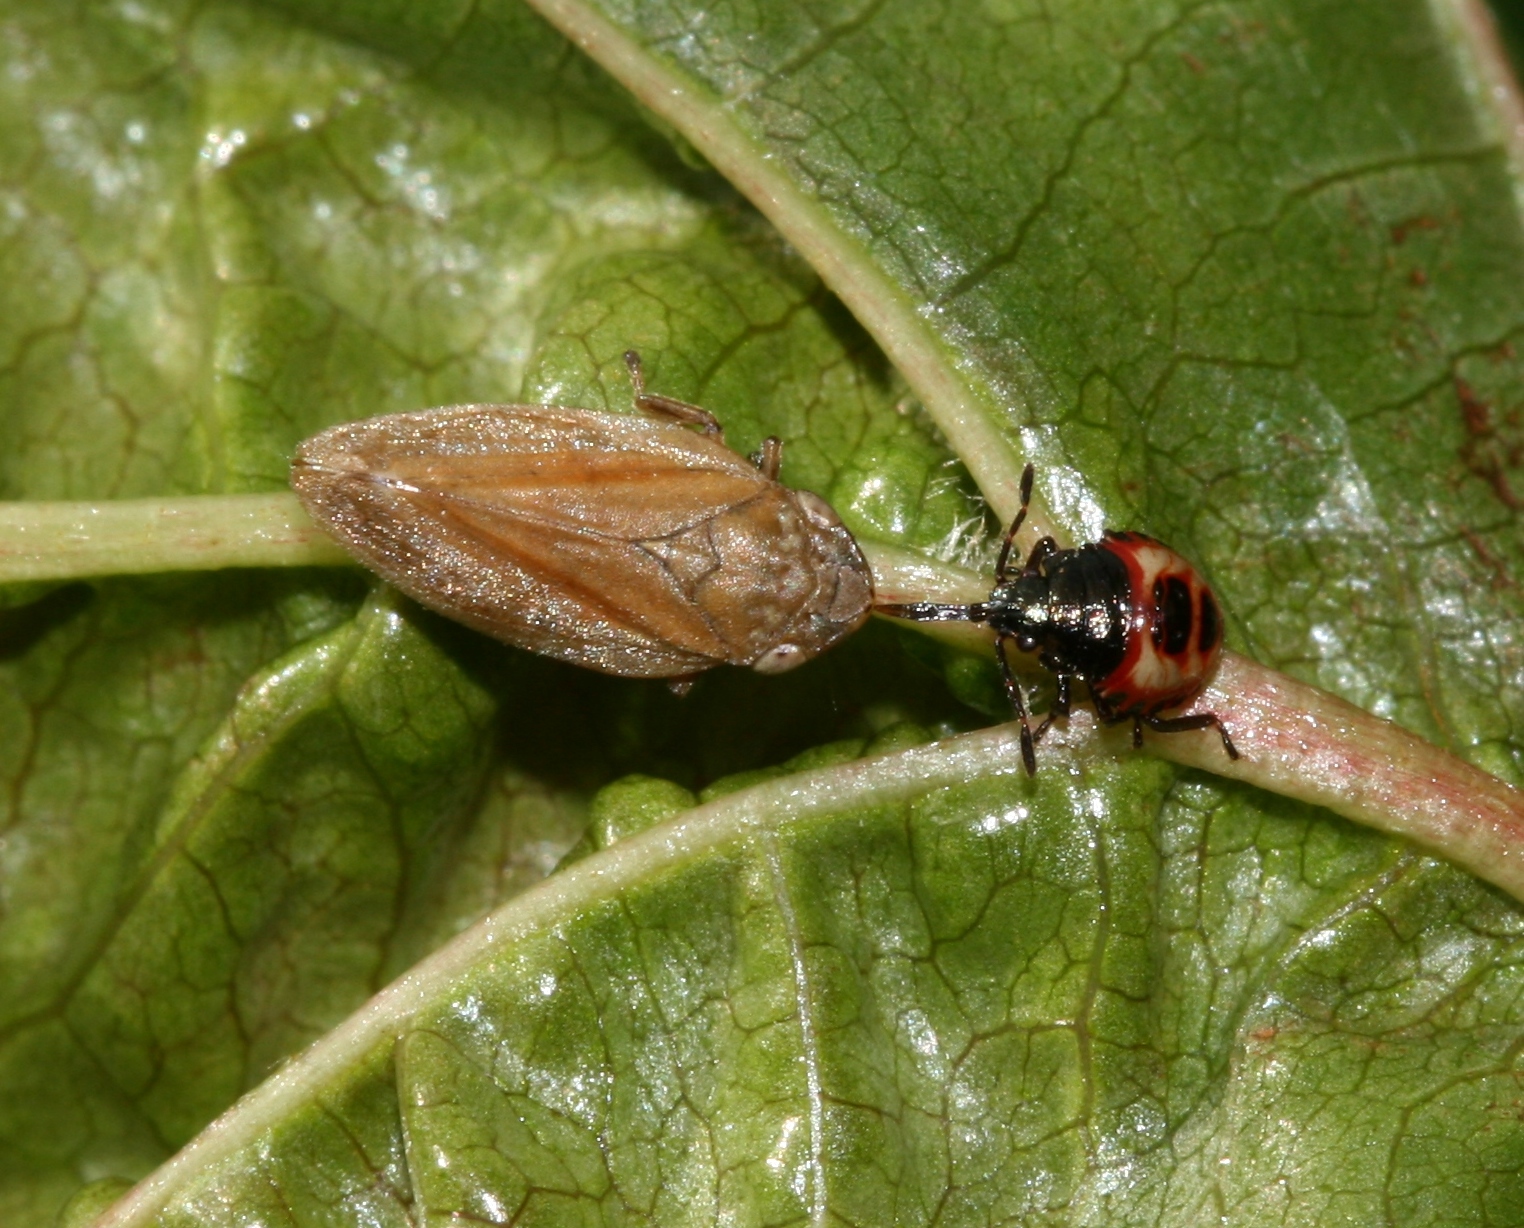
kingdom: Animalia
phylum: Arthropoda
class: Insecta
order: Hemiptera
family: Pentatomidae
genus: Troilus
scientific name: Troilus luridus
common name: Bronze shieldbug
